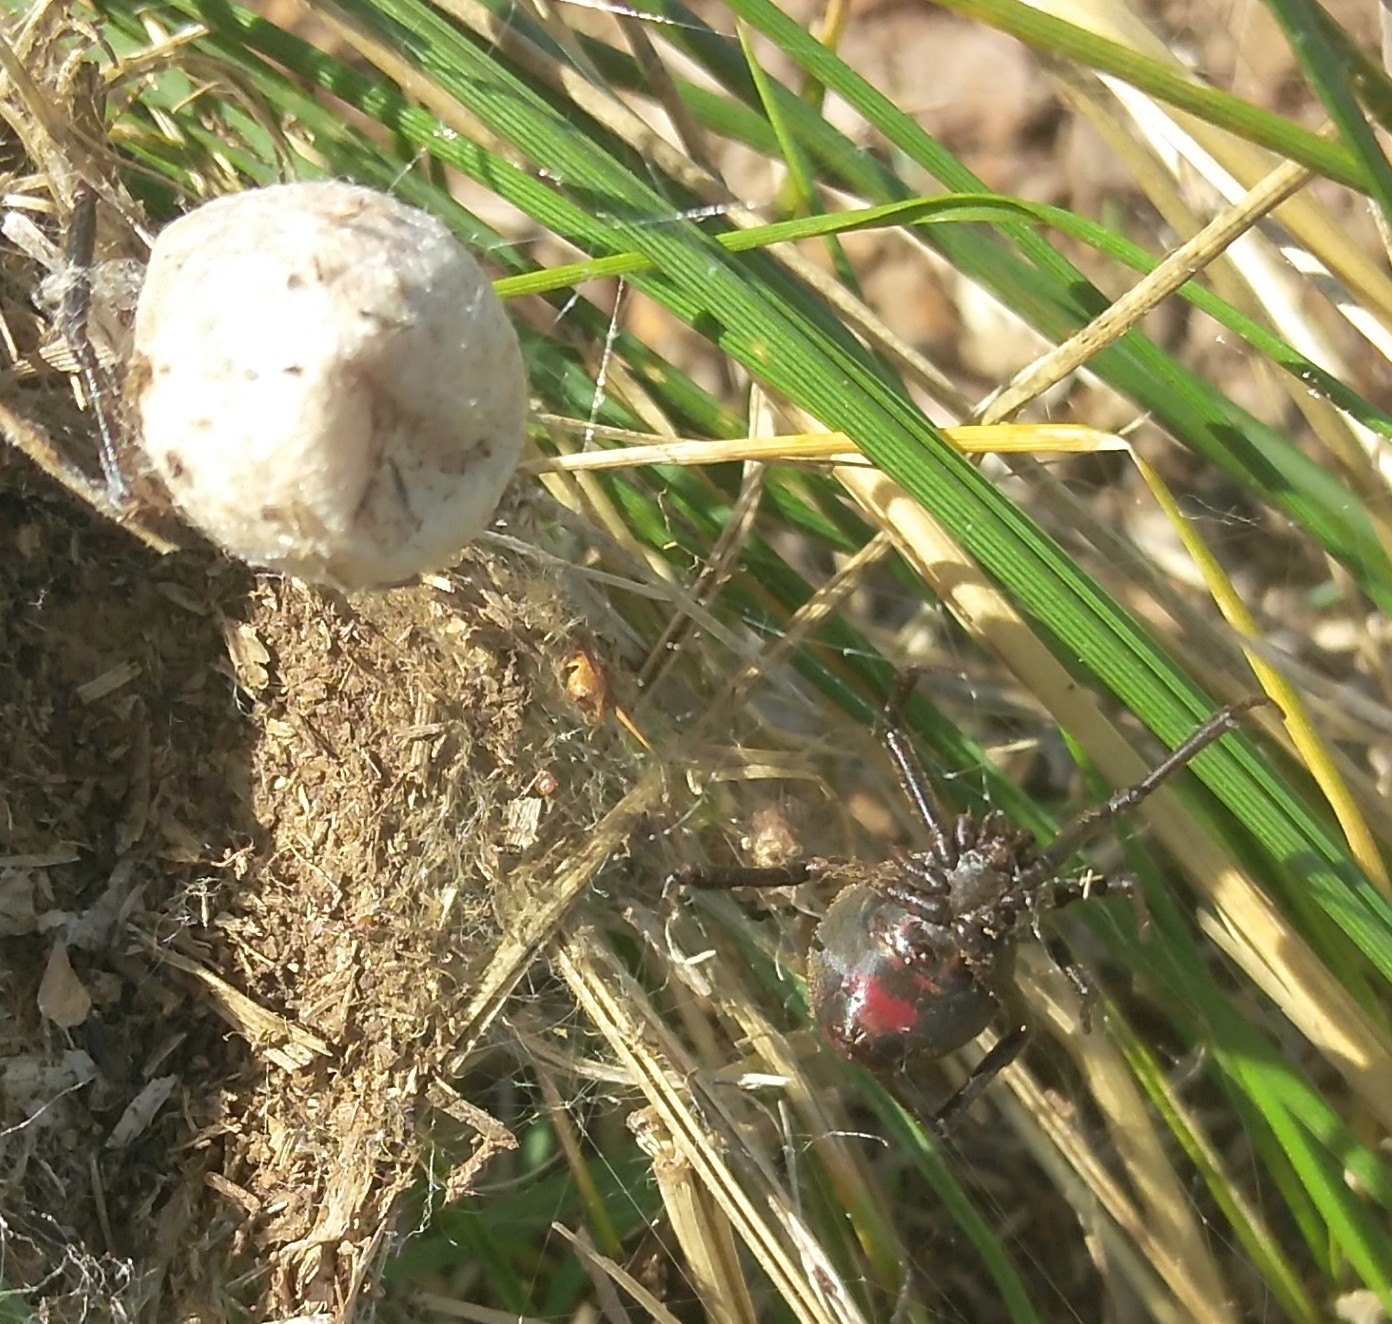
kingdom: Animalia
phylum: Arthropoda
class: Arachnida
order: Araneae
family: Theridiidae
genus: Latrodectus
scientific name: Latrodectus mirabilis
